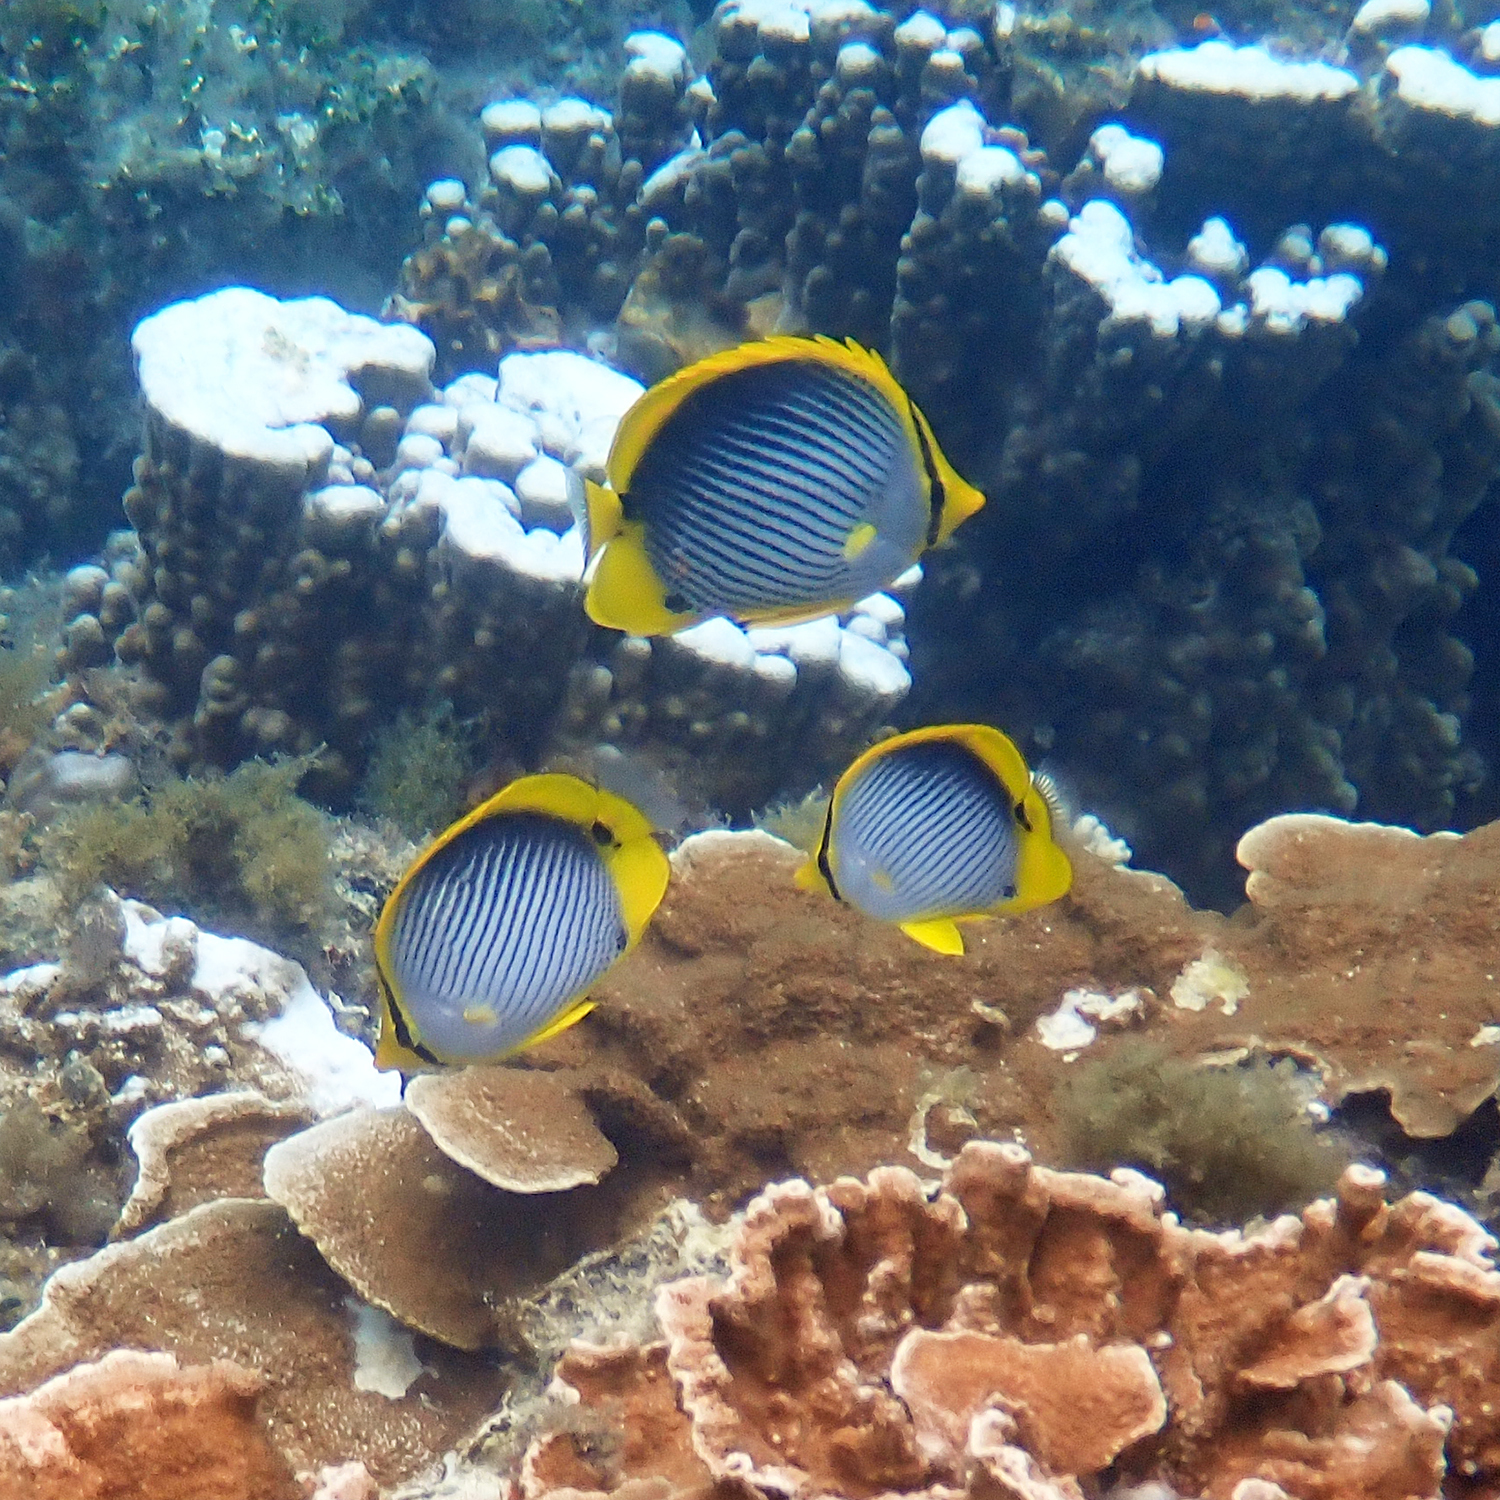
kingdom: Animalia
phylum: Chordata
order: Perciformes
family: Chaetodontidae
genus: Chaetodon
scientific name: Chaetodon melannotus
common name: Blackback butterflyfish
